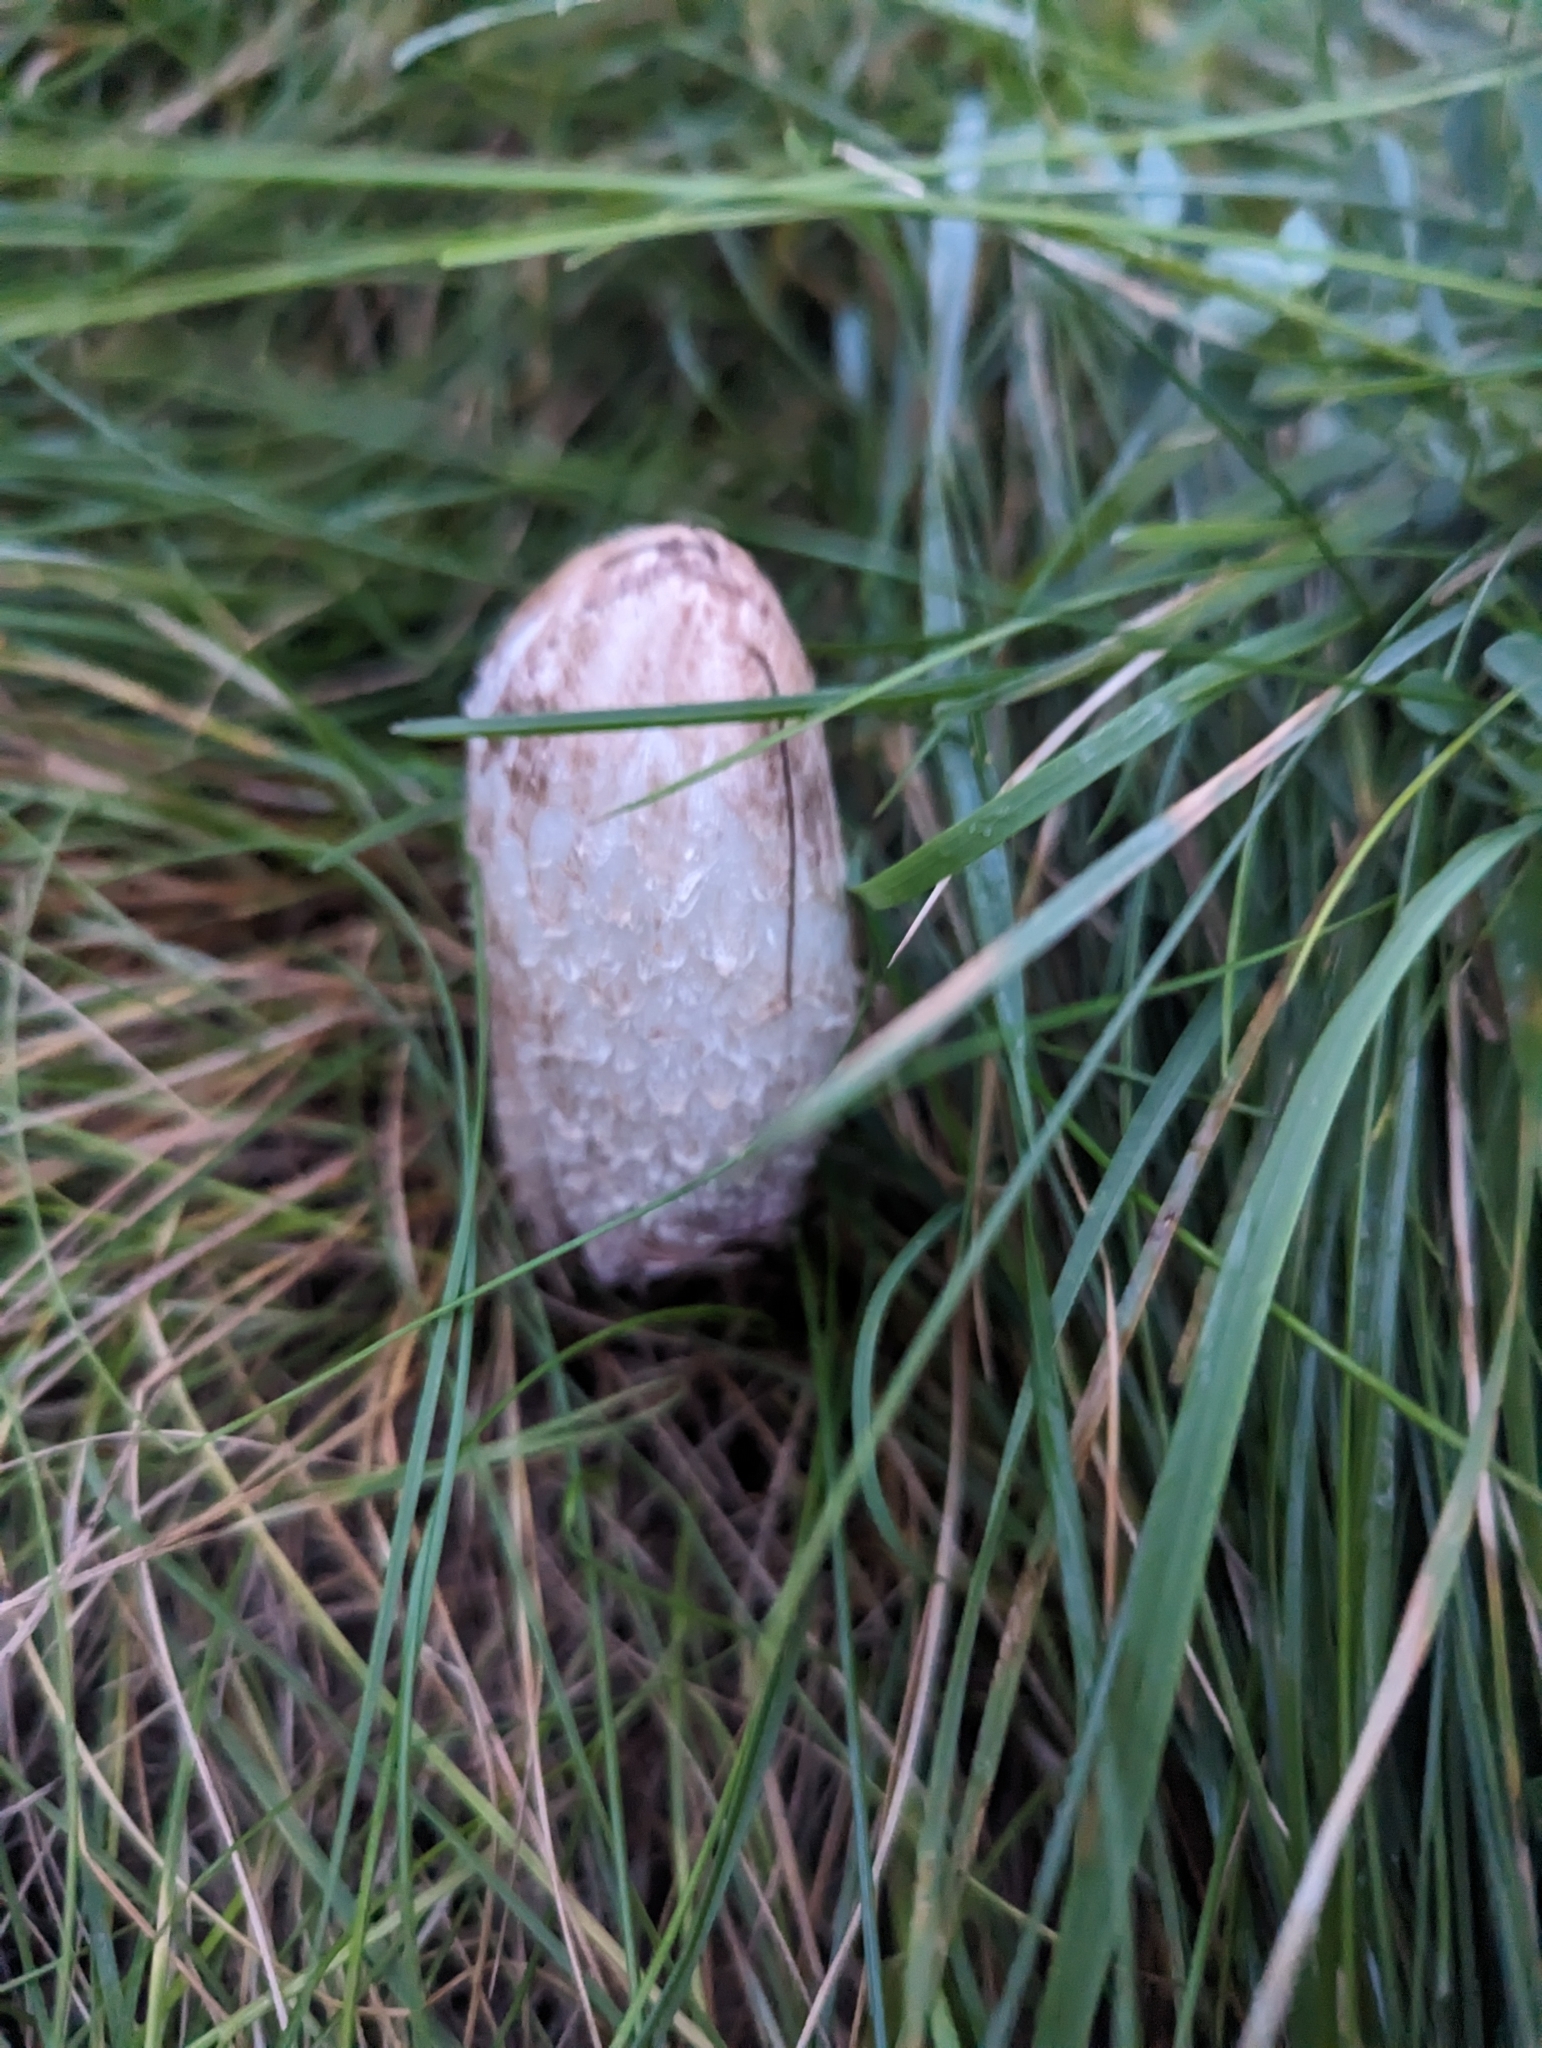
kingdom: Fungi
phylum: Basidiomycota
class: Agaricomycetes
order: Agaricales
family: Agaricaceae
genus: Coprinus
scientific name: Coprinus comatus
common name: Lawyer's wig
